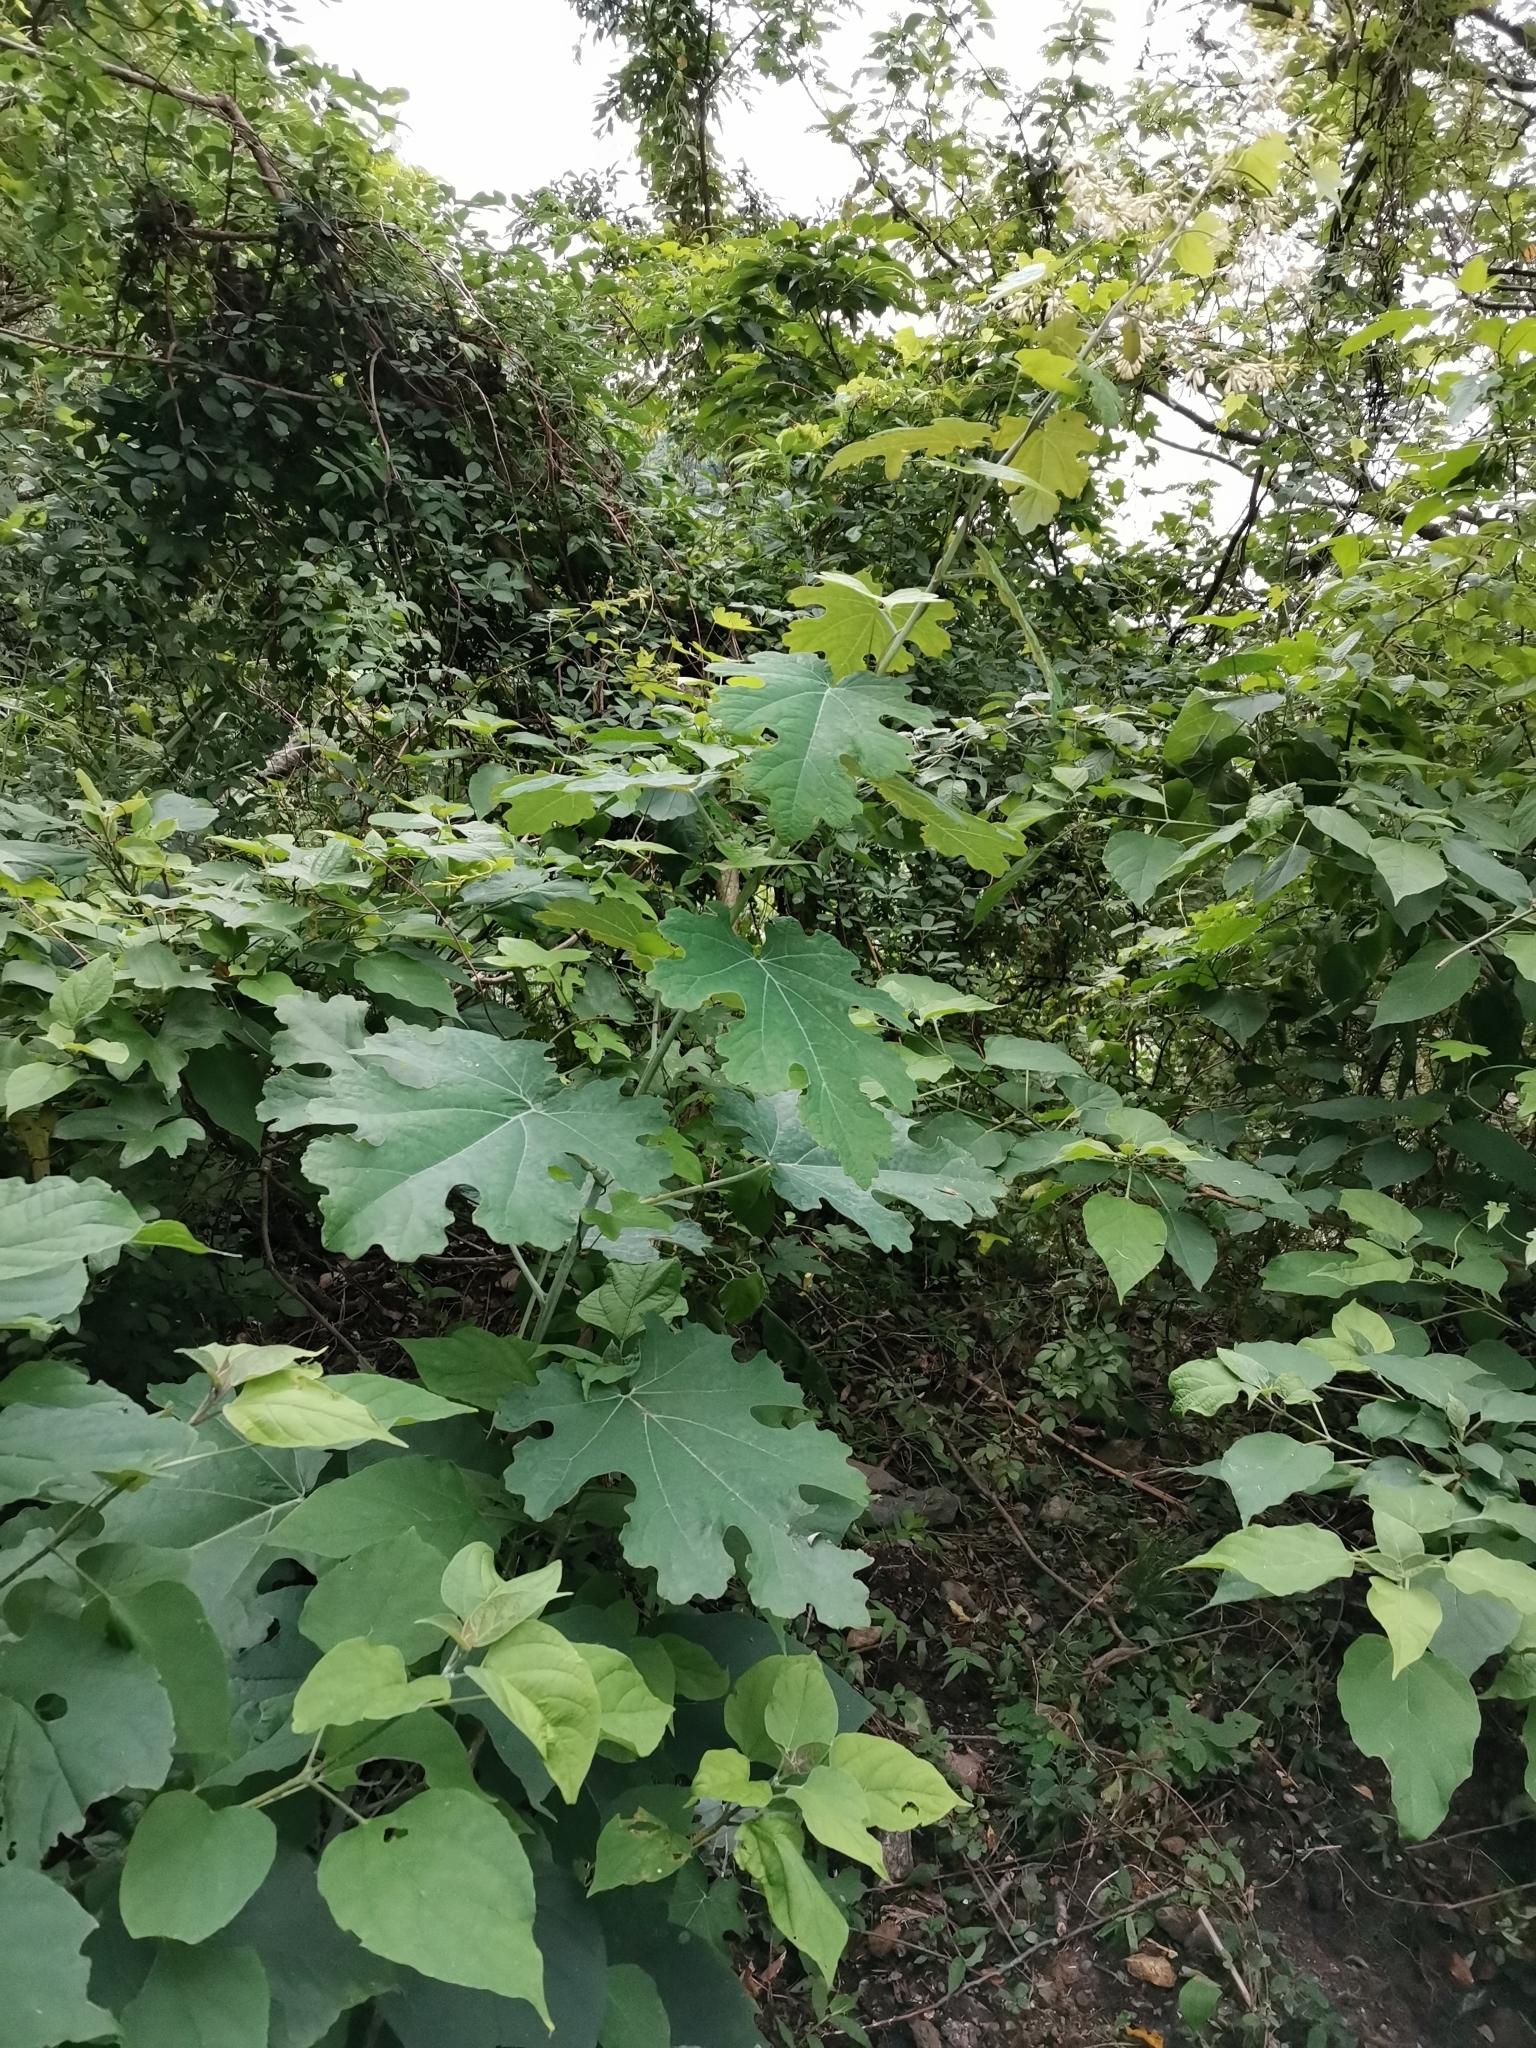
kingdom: Plantae
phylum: Tracheophyta
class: Magnoliopsida
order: Ranunculales
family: Papaveraceae
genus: Macleaya
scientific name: Macleaya cordata
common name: Plume poppy
